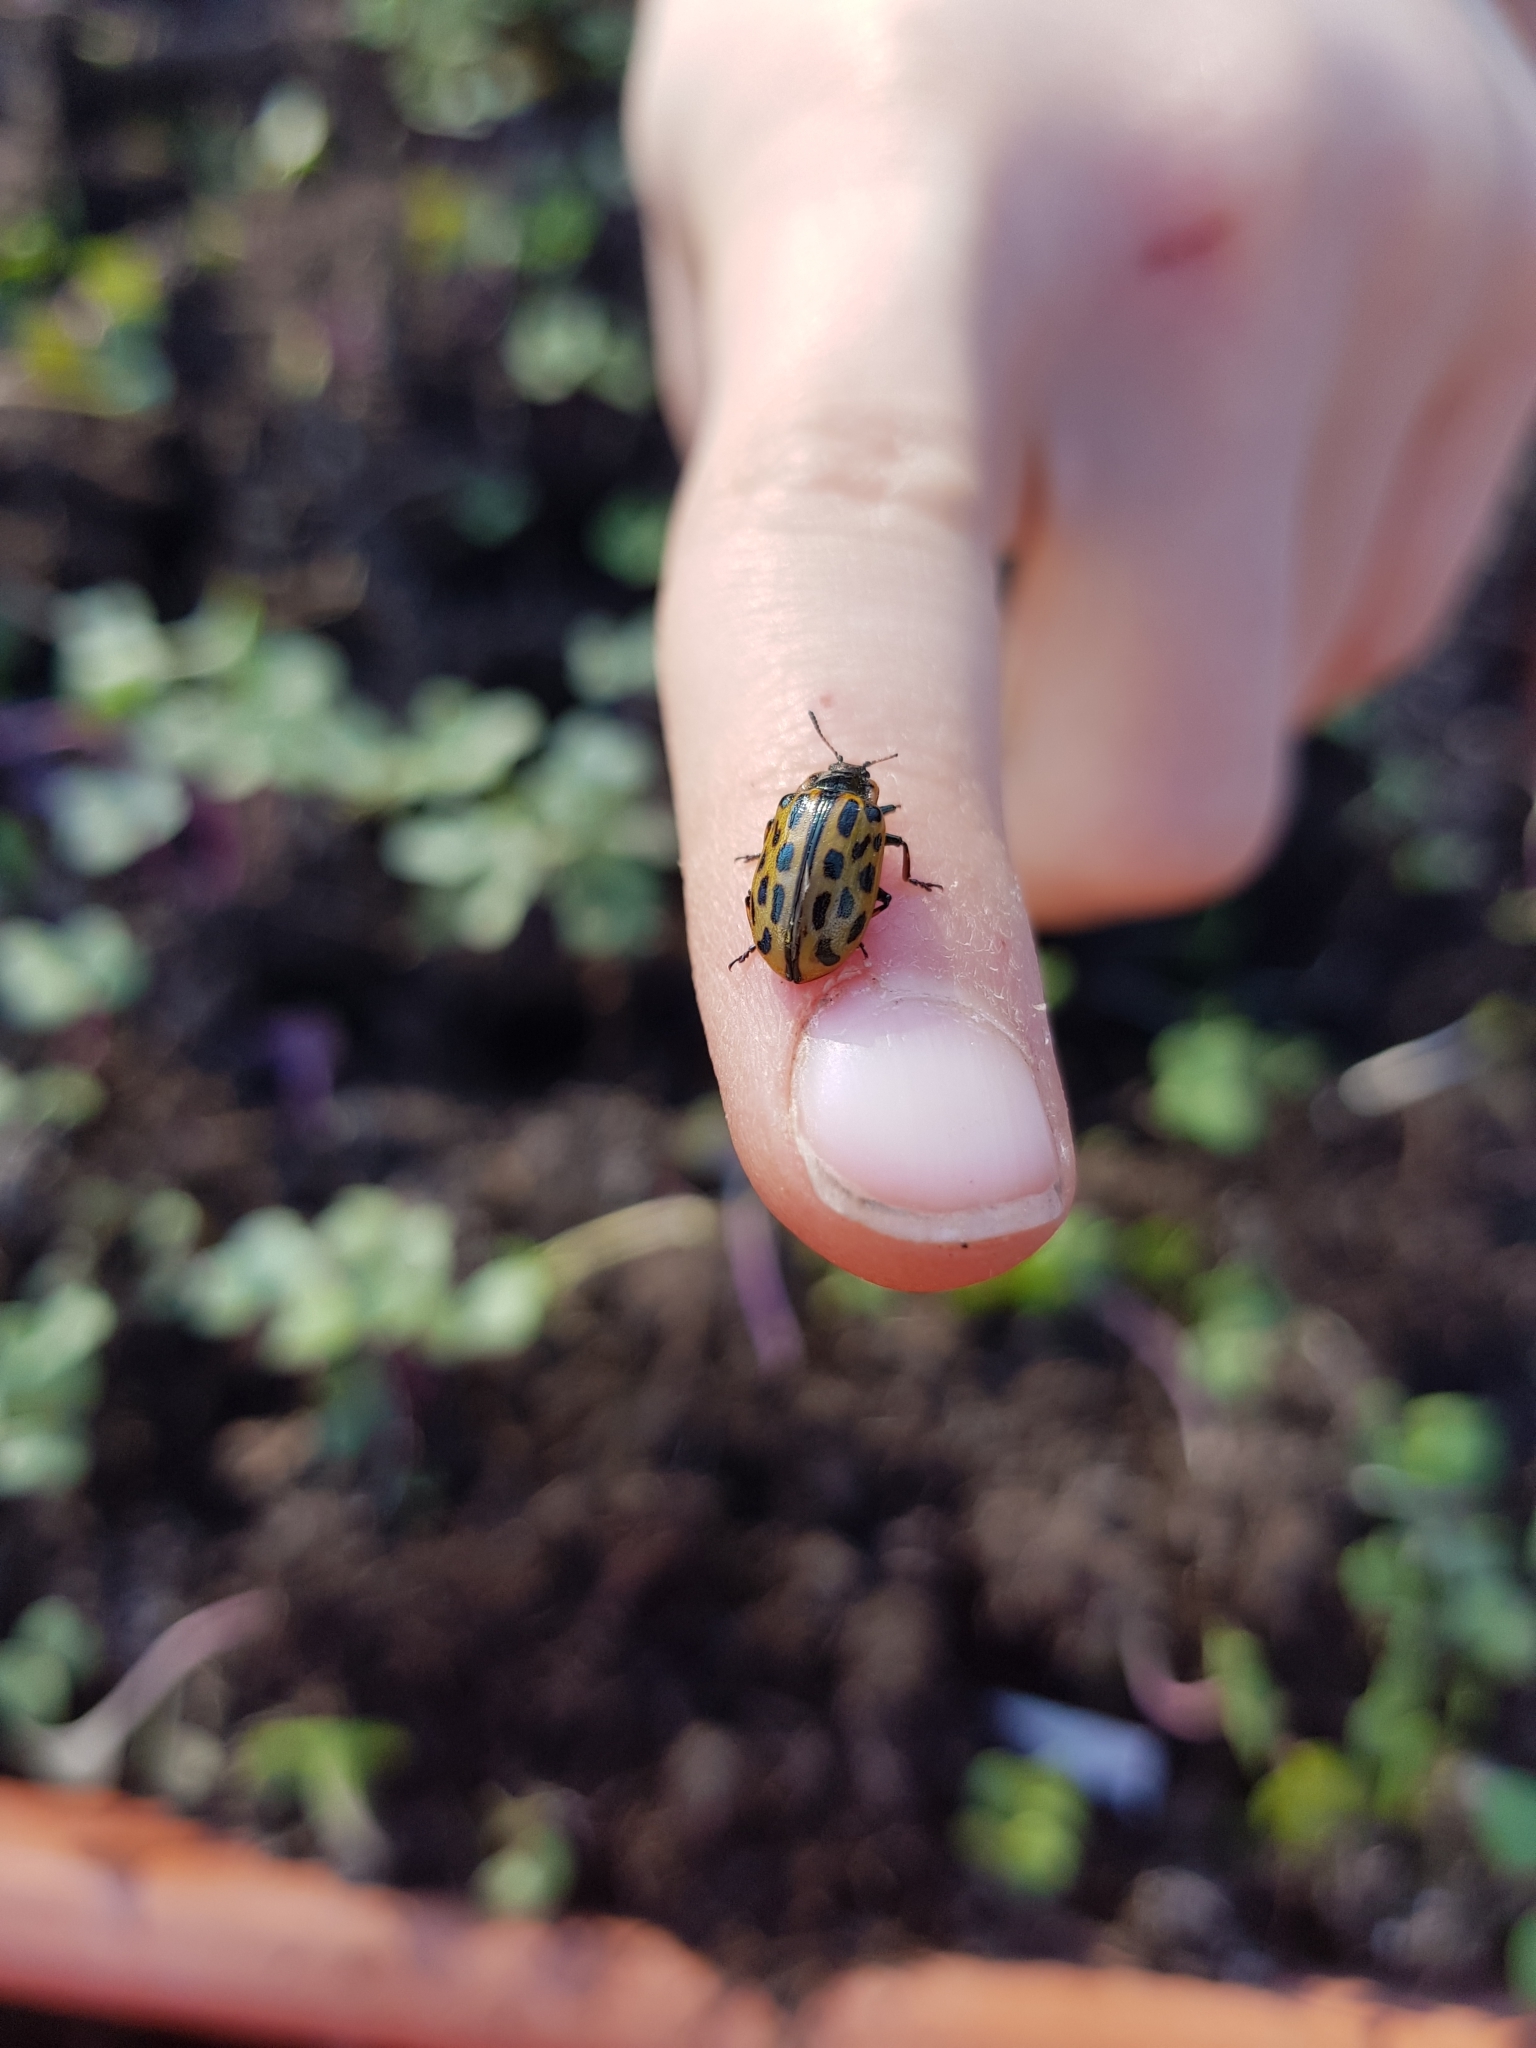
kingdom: Animalia
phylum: Arthropoda
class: Insecta
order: Coleoptera
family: Chrysomelidae
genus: Chrysomela
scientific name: Chrysomela vigintipunctata
